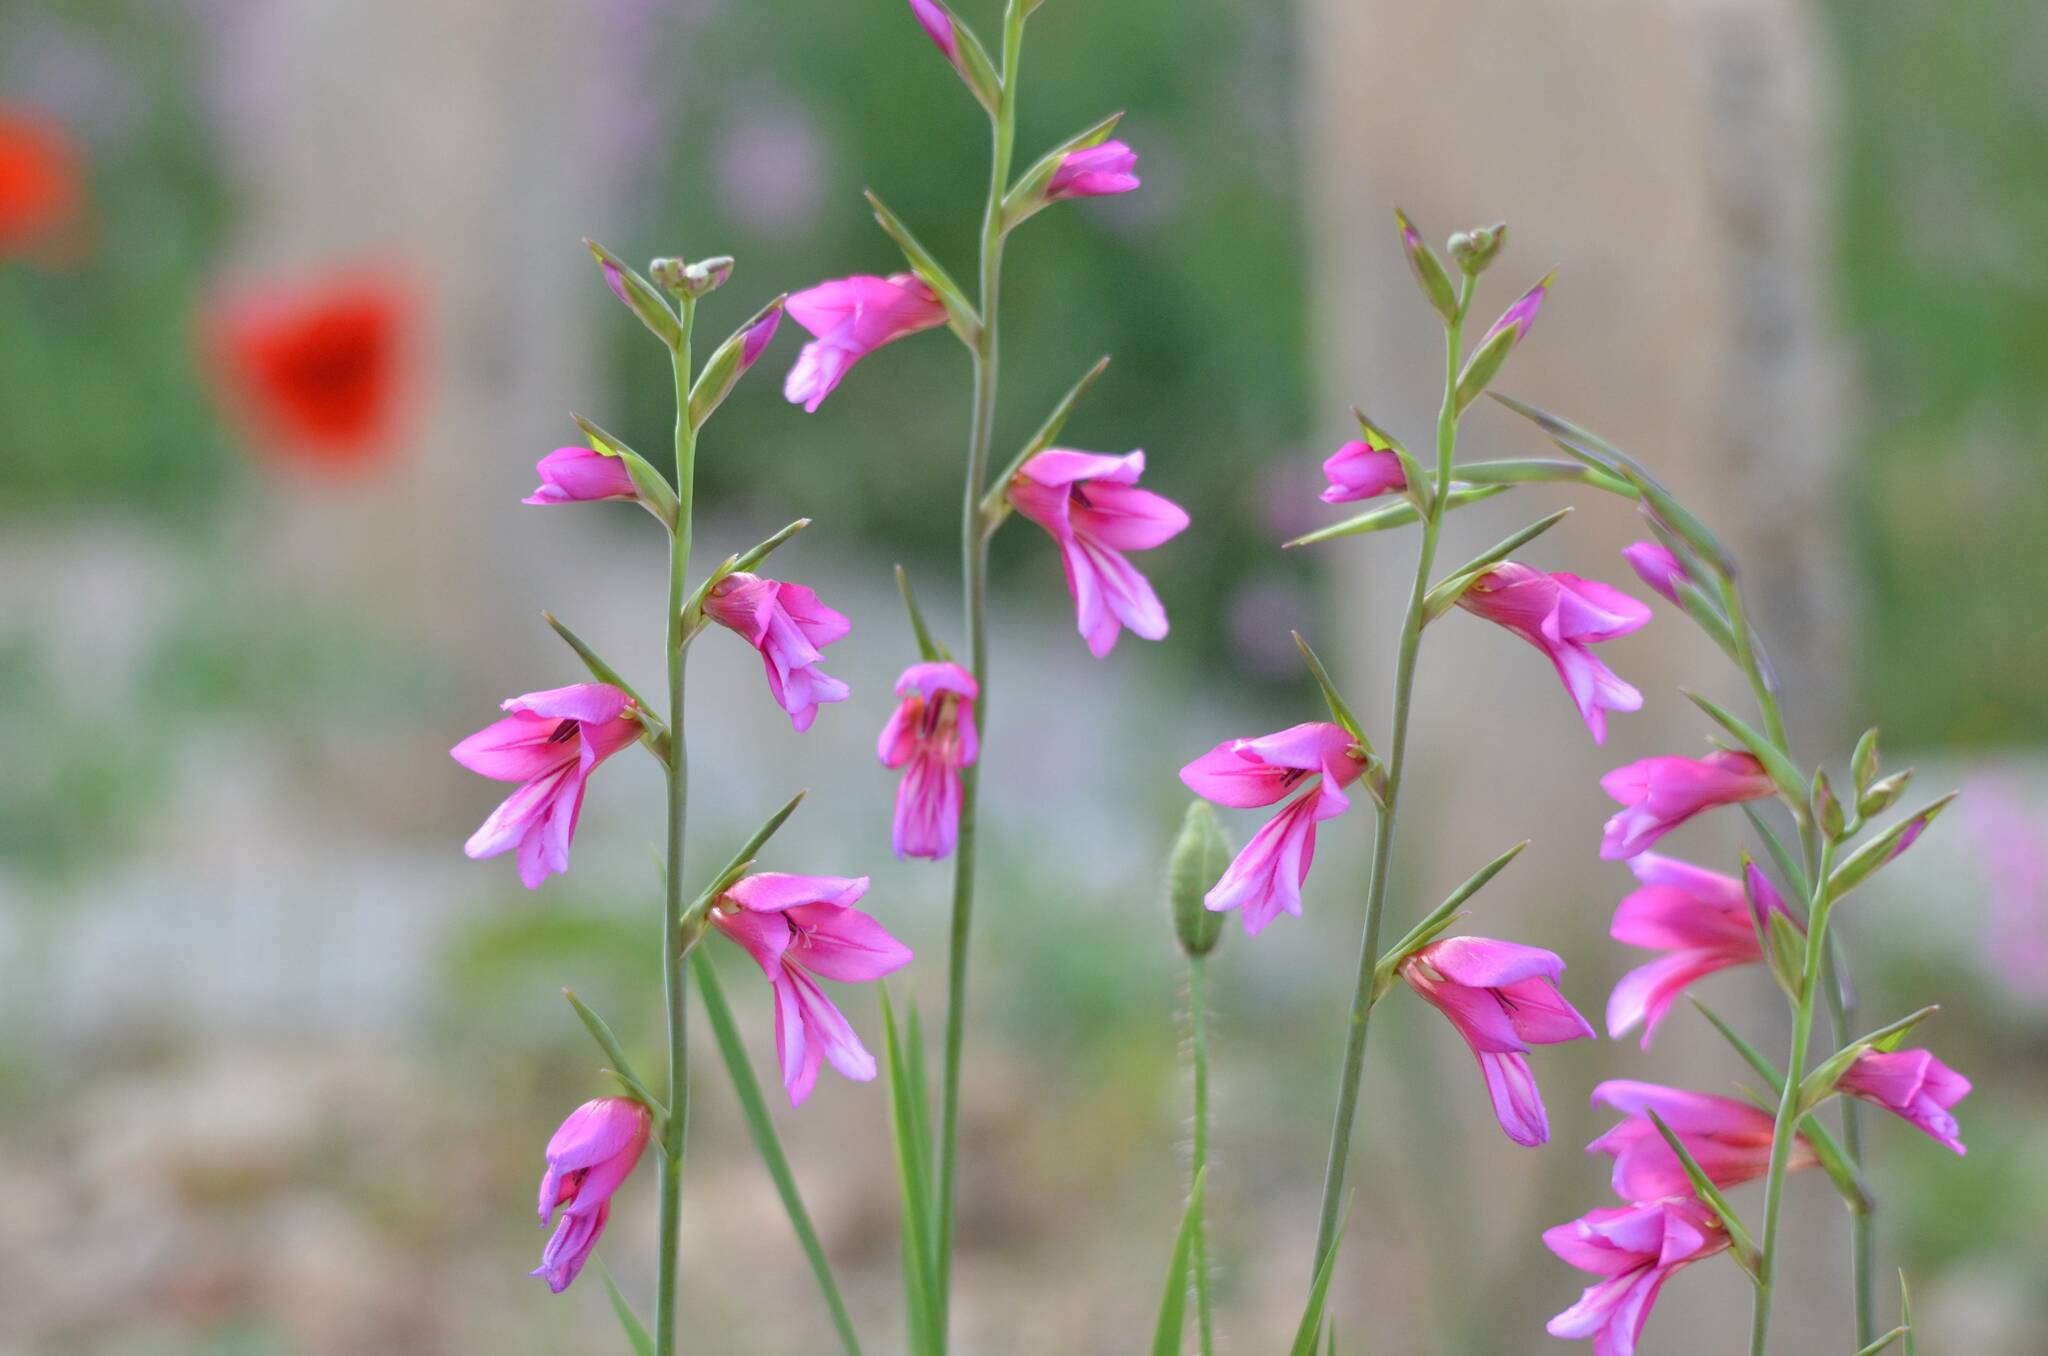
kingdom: Plantae
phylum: Tracheophyta
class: Liliopsida
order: Asparagales
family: Iridaceae
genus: Gladiolus
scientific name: Gladiolus italicus
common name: Field gladiolus
